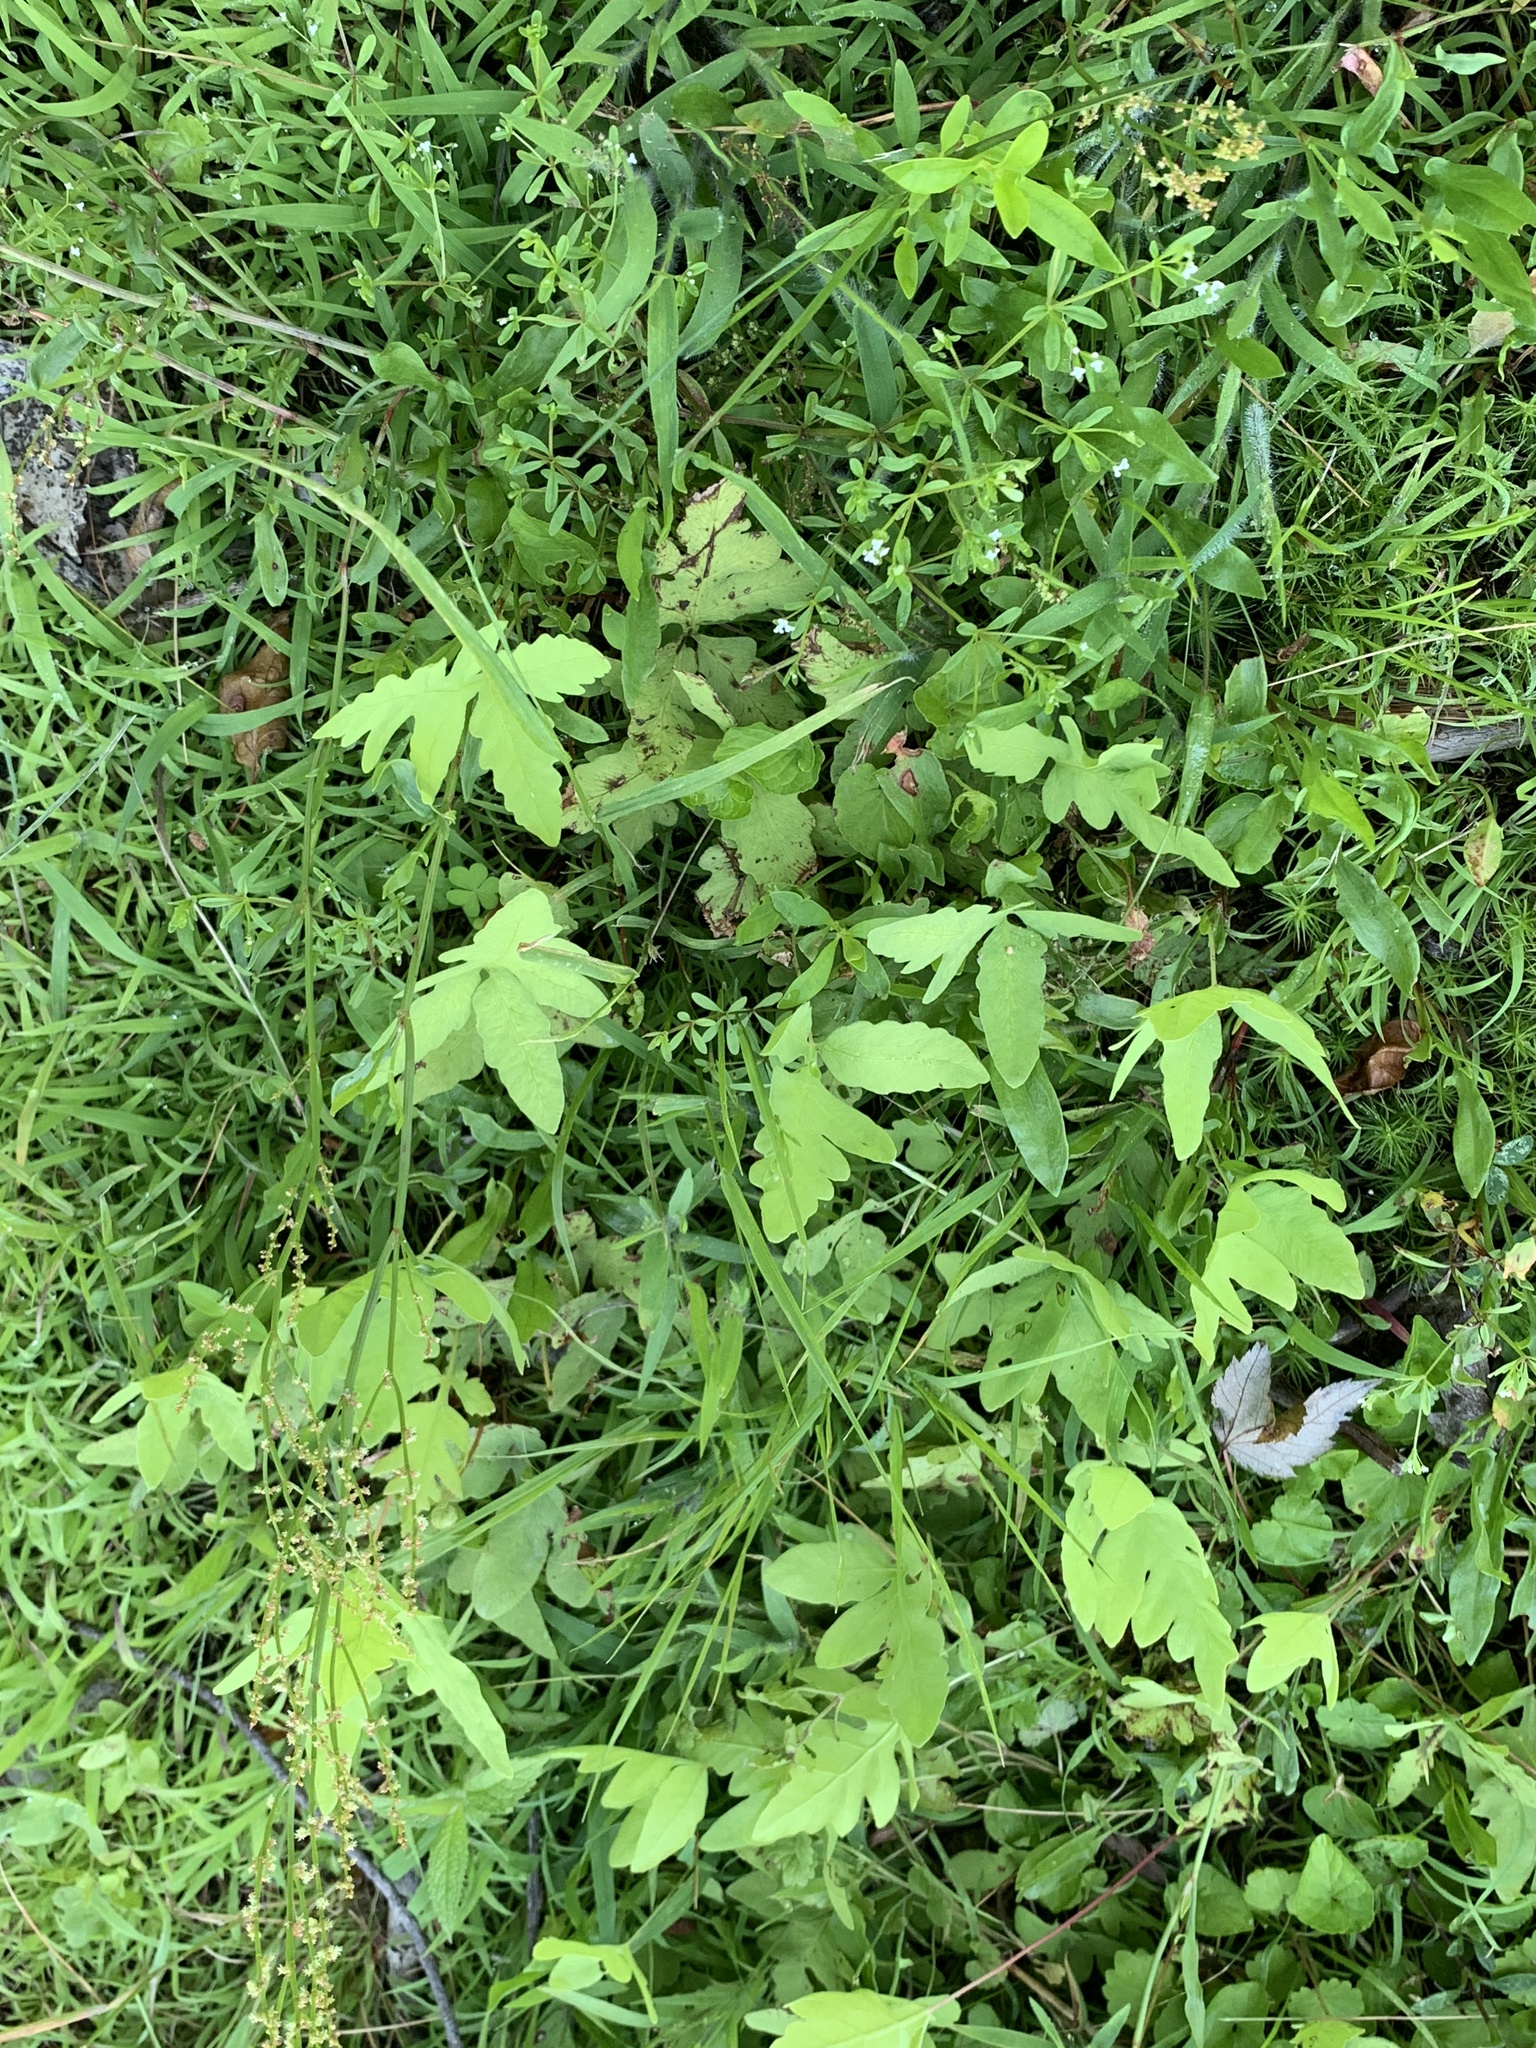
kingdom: Plantae
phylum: Tracheophyta
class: Polypodiopsida
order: Polypodiales
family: Onocleaceae
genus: Onoclea
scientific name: Onoclea sensibilis
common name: Sensitive fern
